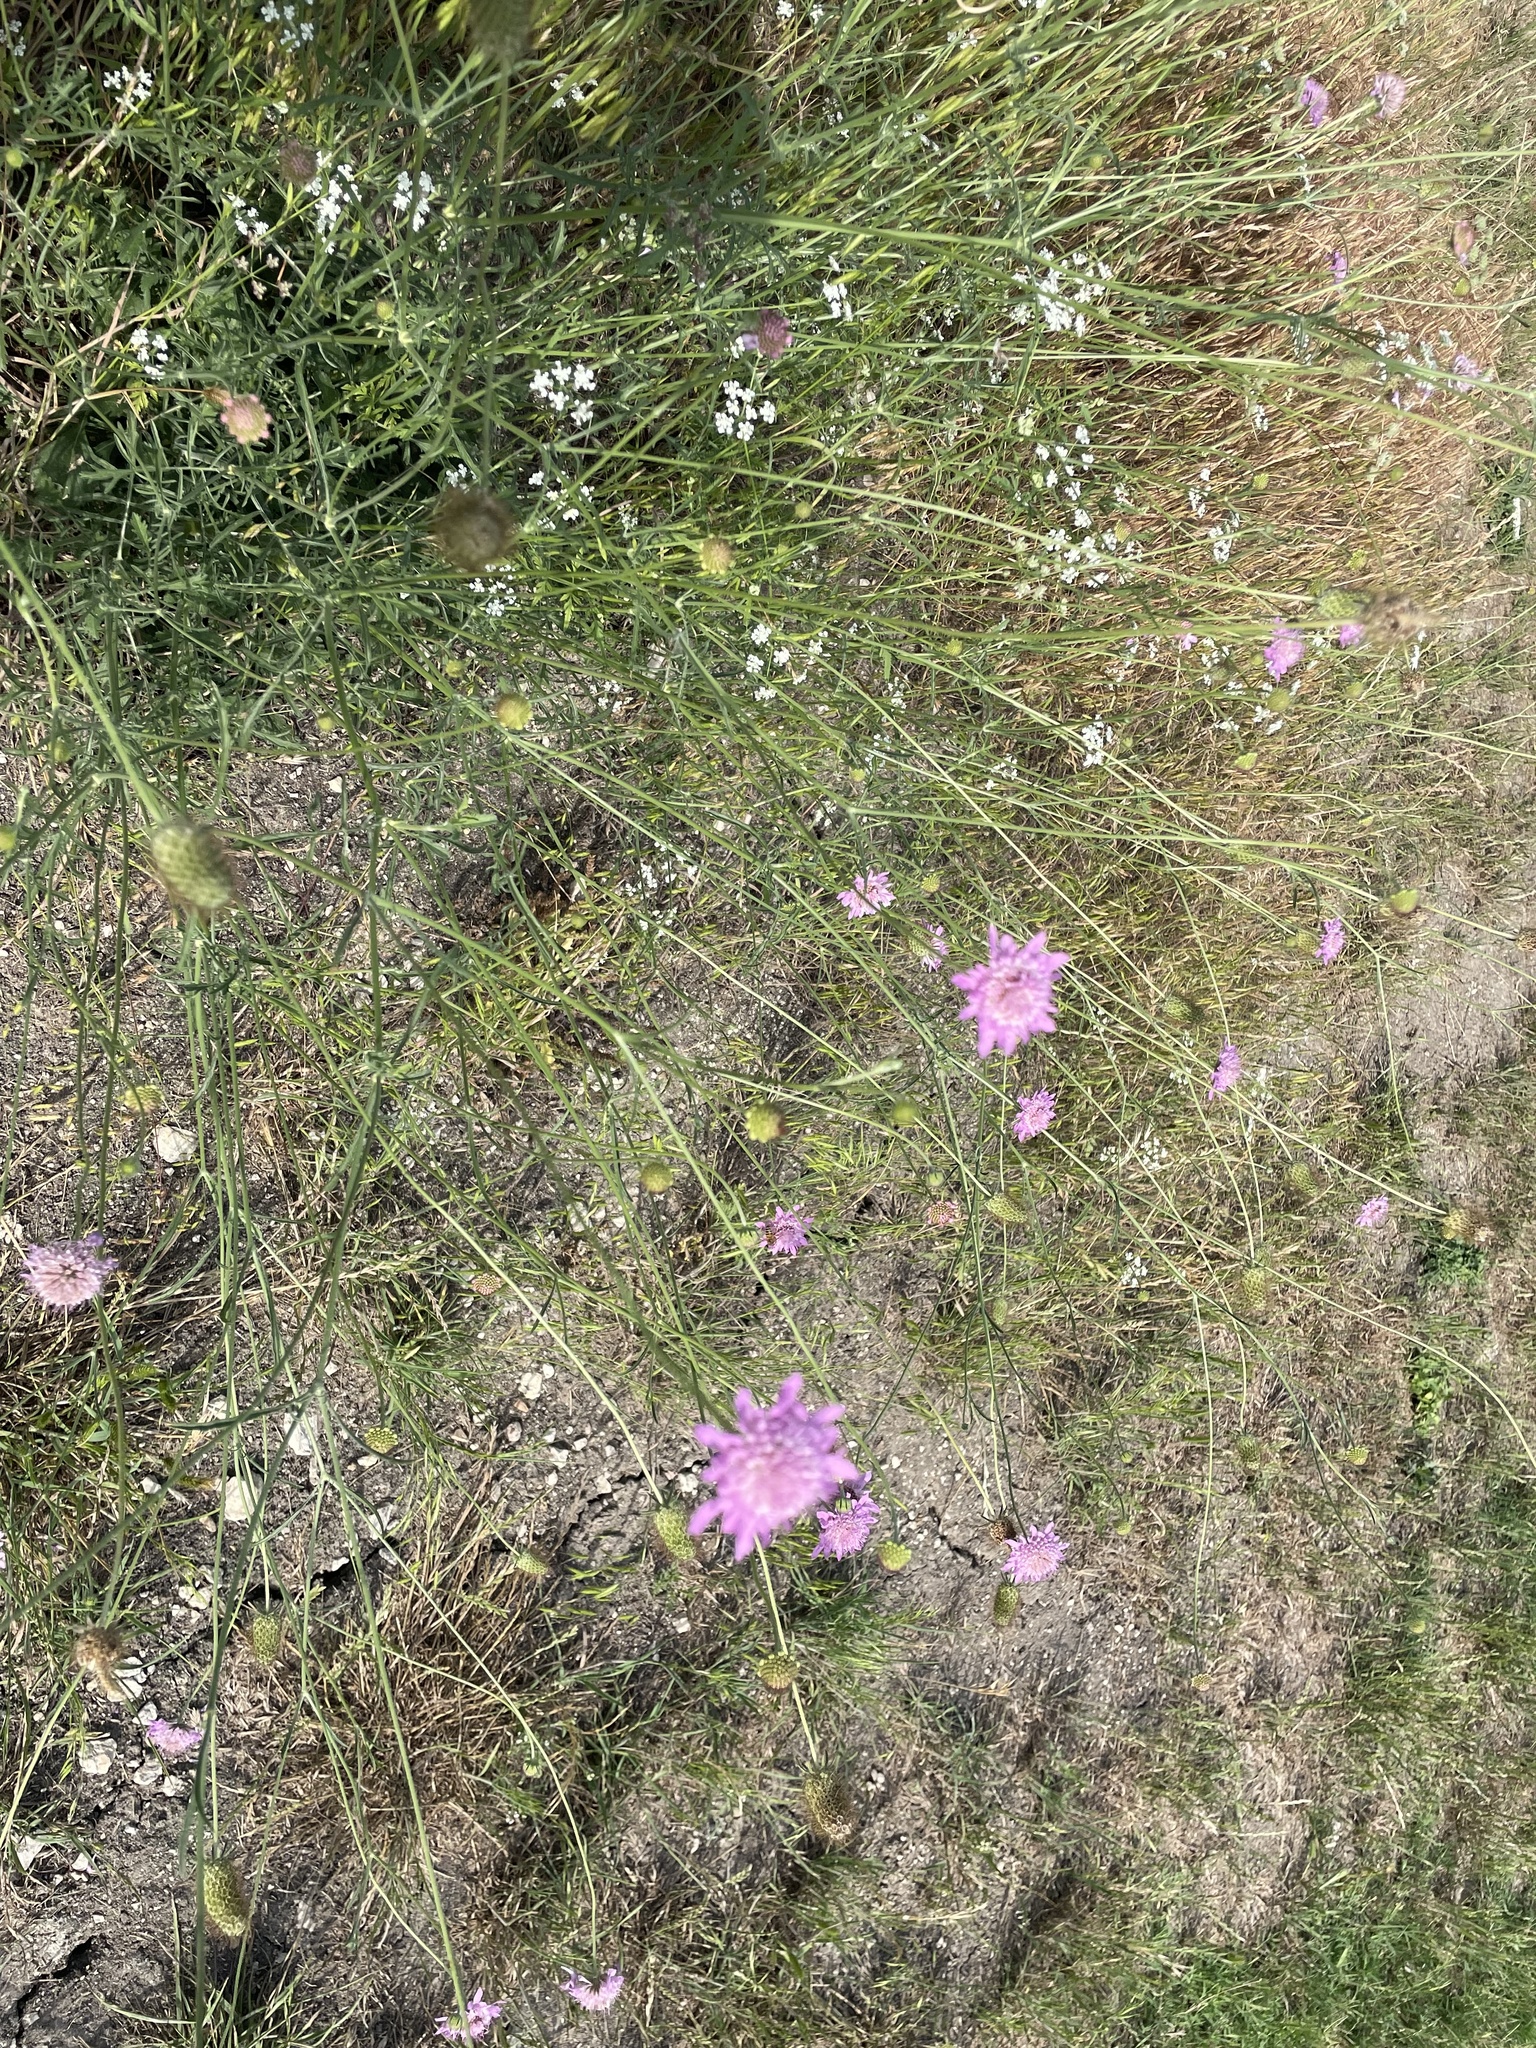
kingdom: Plantae
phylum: Tracheophyta
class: Magnoliopsida
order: Dipsacales
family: Caprifoliaceae
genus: Sixalix
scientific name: Sixalix atropurpurea
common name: Sweet scabious
